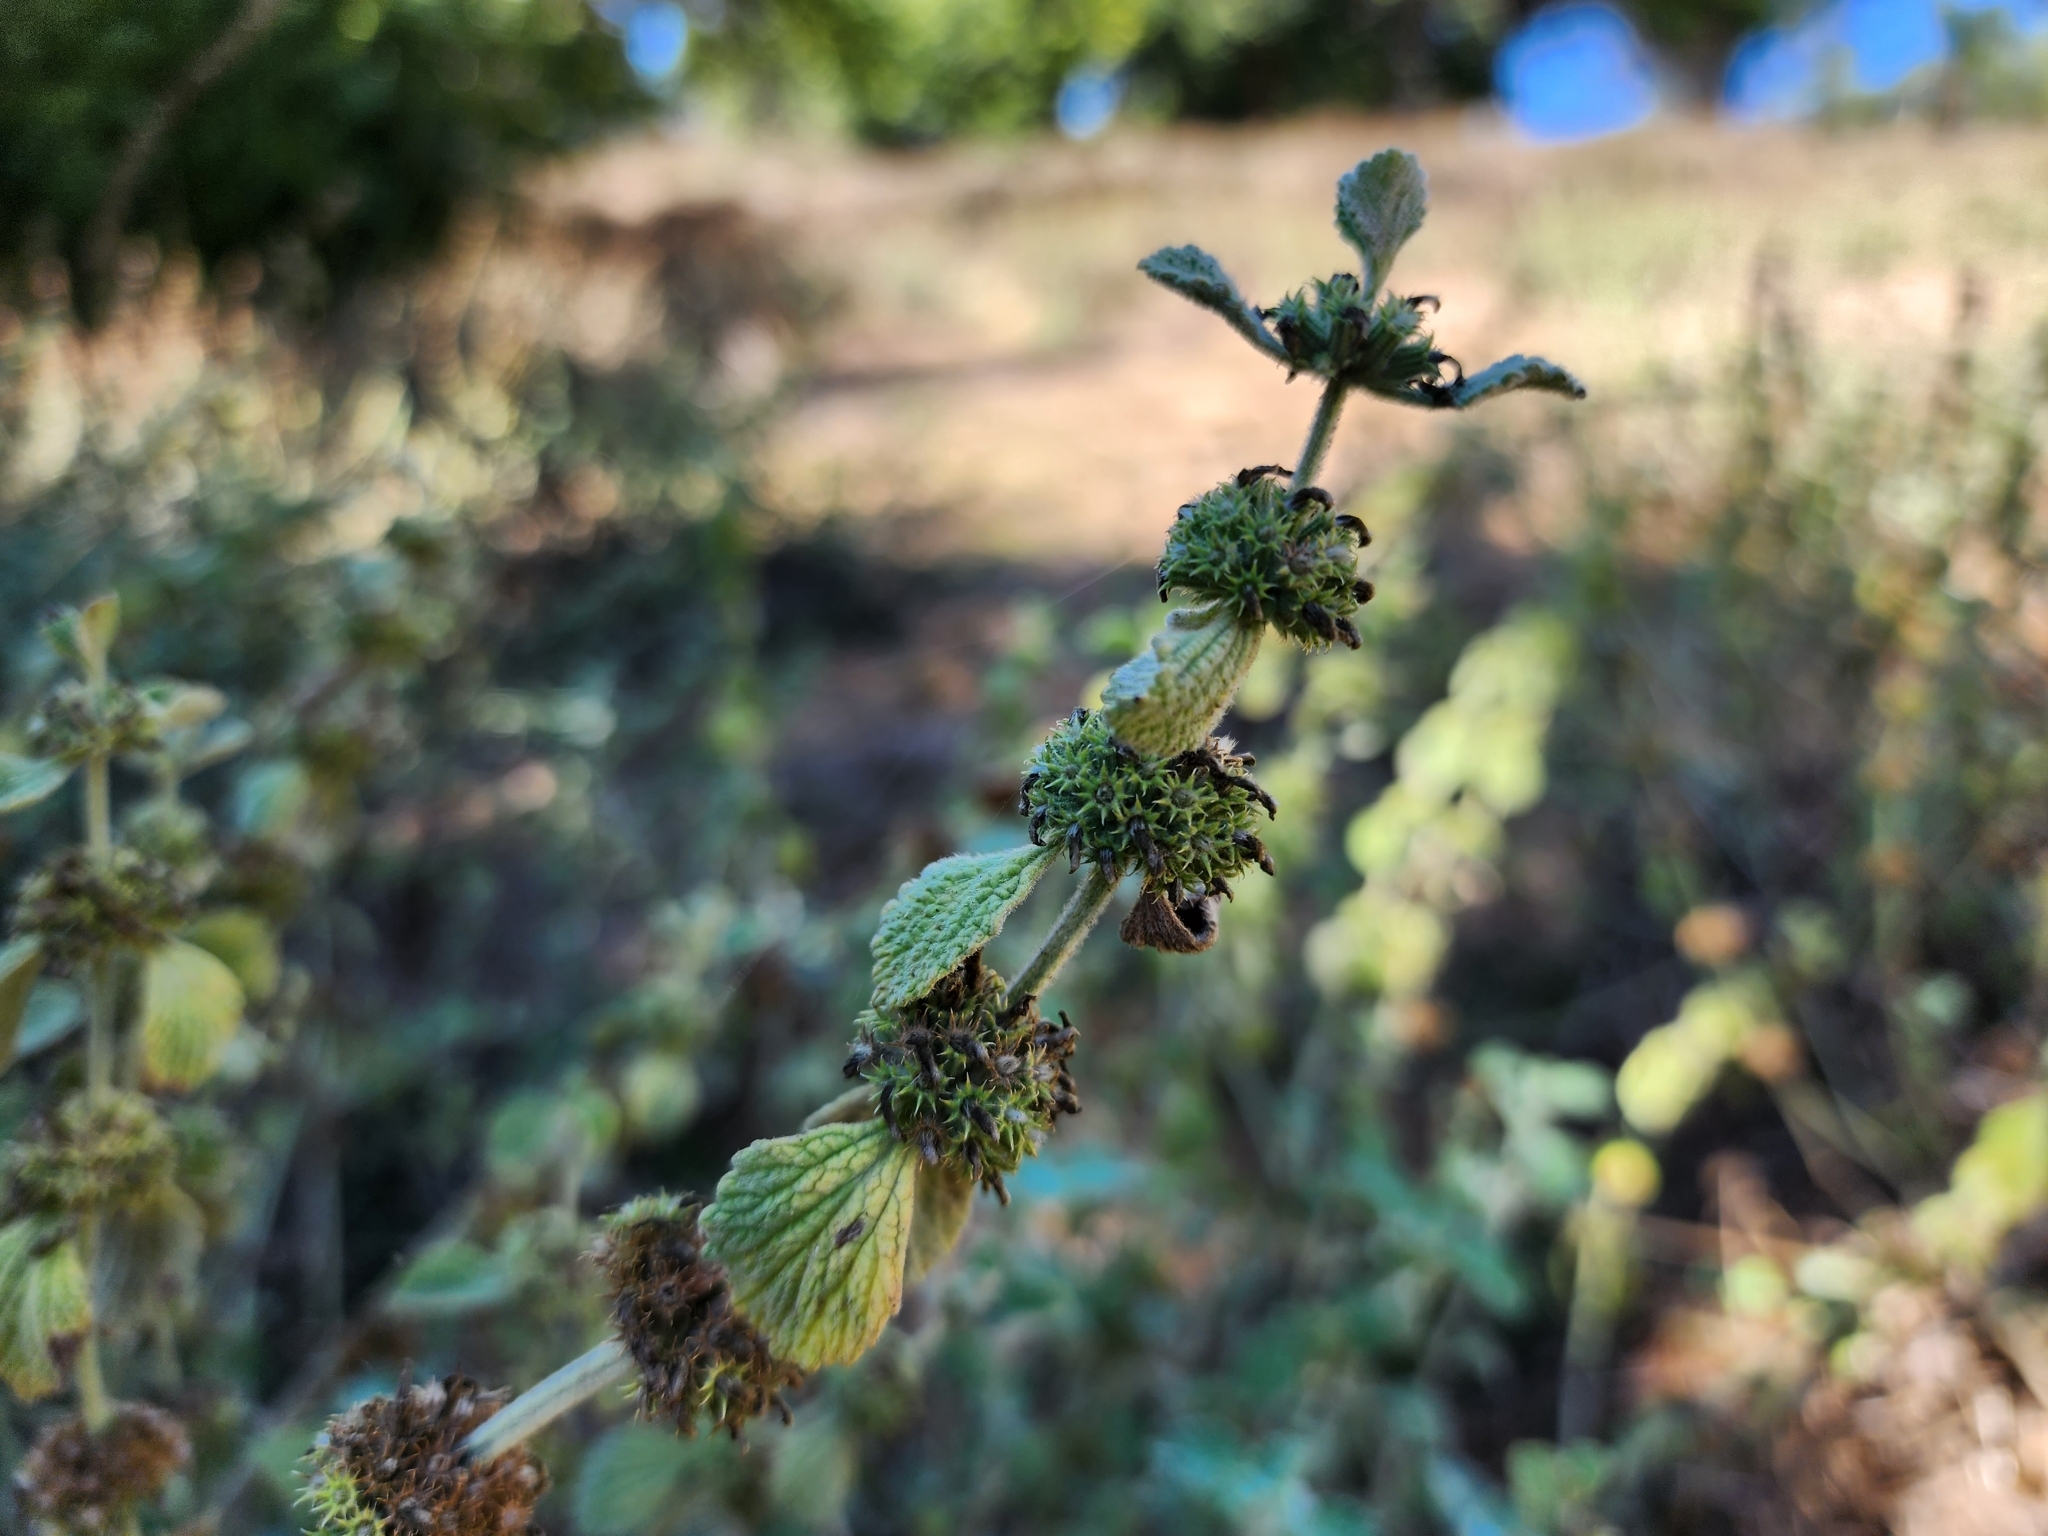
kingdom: Plantae
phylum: Tracheophyta
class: Magnoliopsida
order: Lamiales
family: Lamiaceae
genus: Marrubium
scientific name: Marrubium vulgare
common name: Horehound
